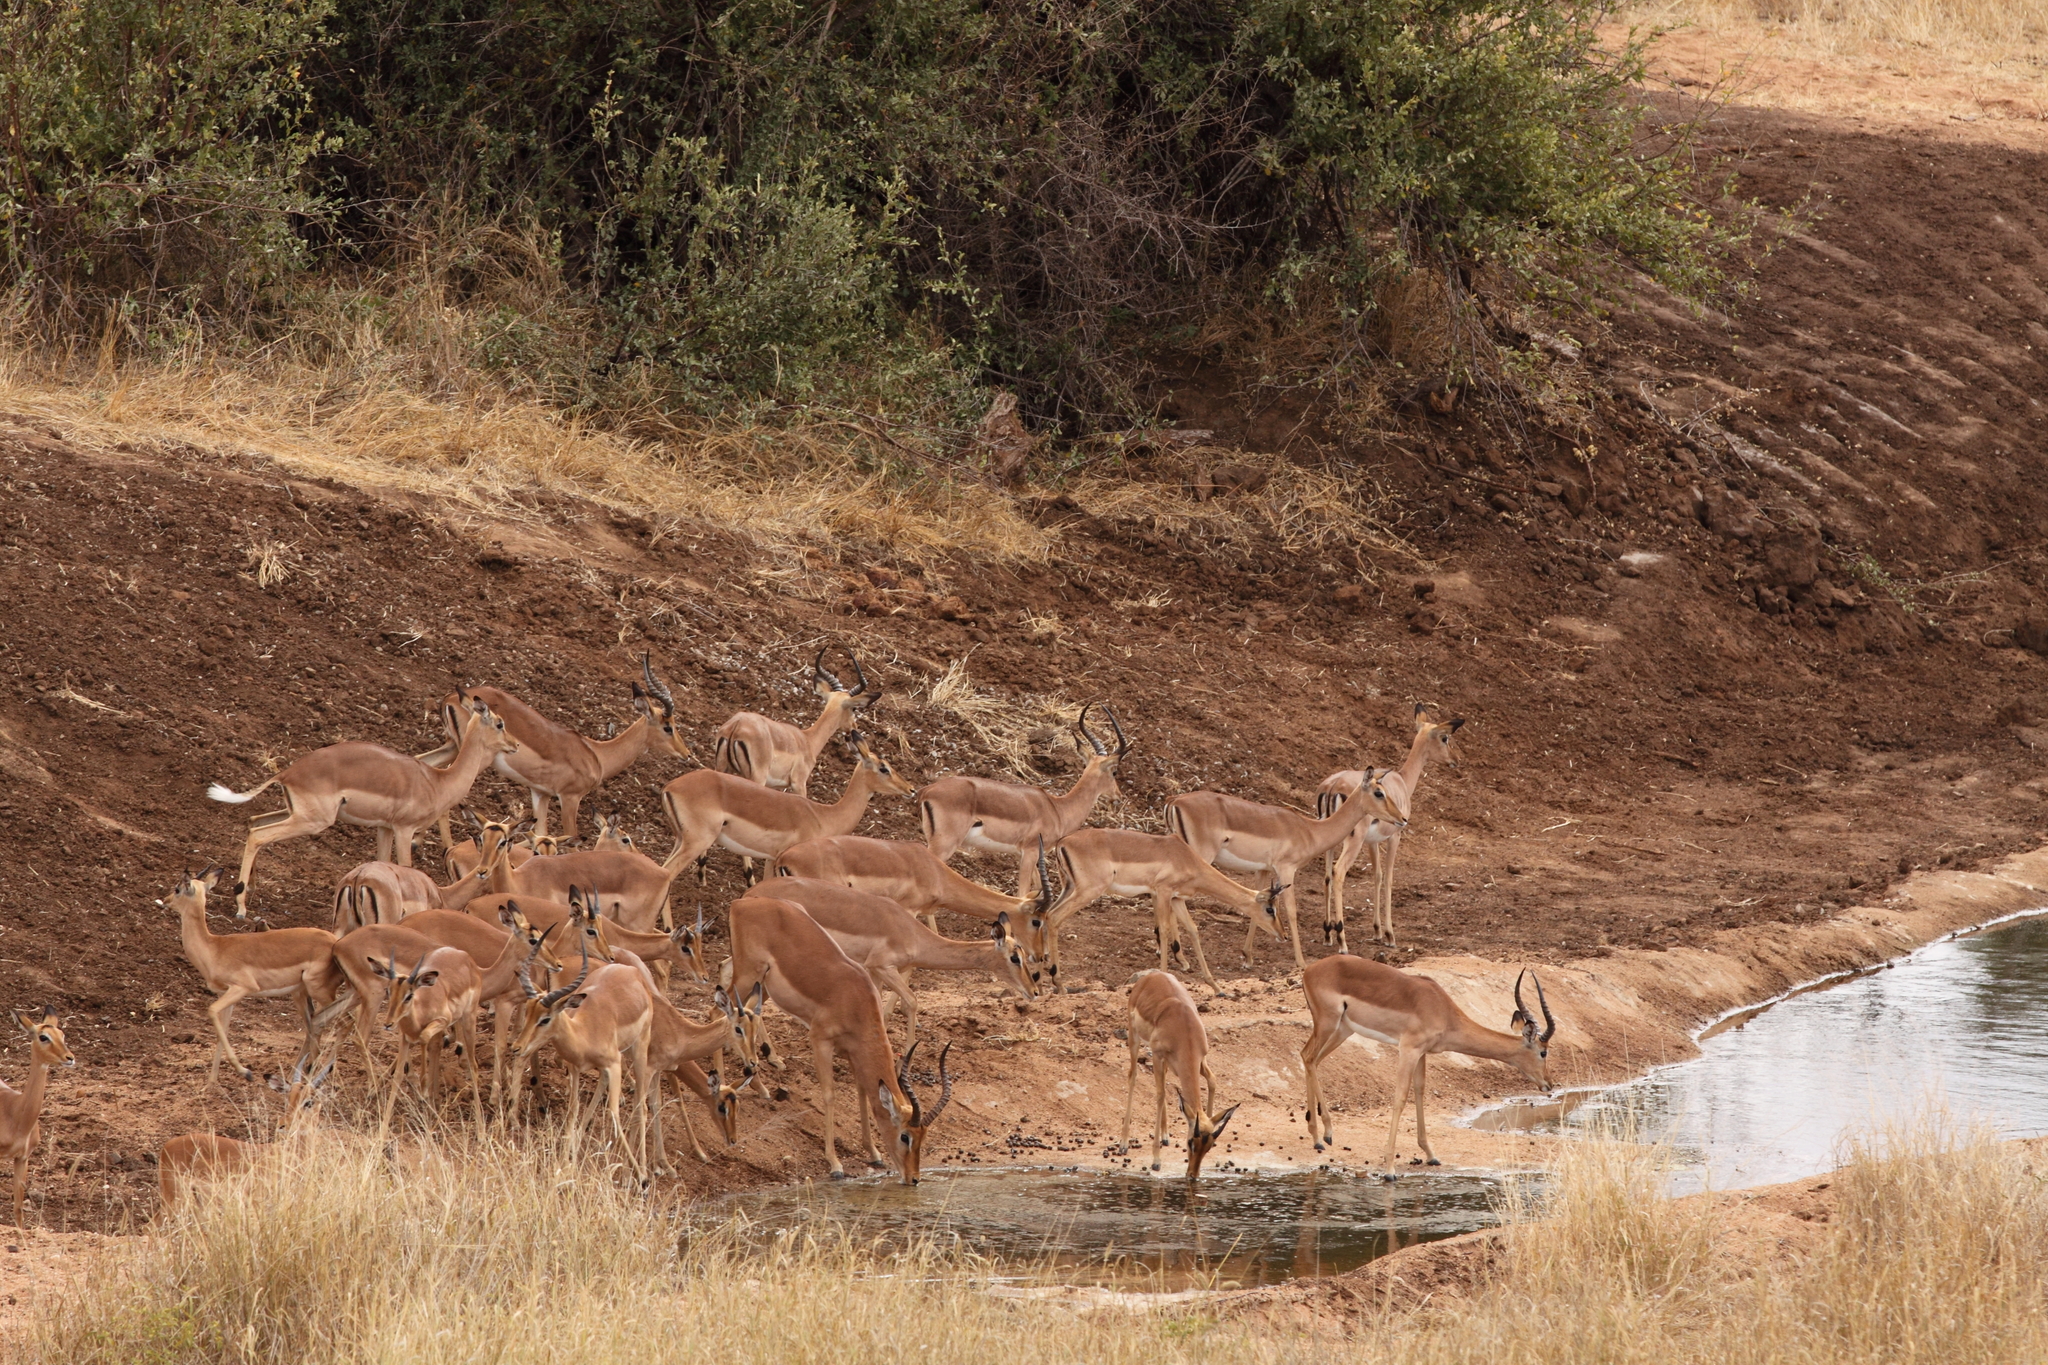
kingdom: Animalia
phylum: Chordata
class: Mammalia
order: Artiodactyla
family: Bovidae
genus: Aepyceros
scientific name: Aepyceros melampus
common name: Impala
